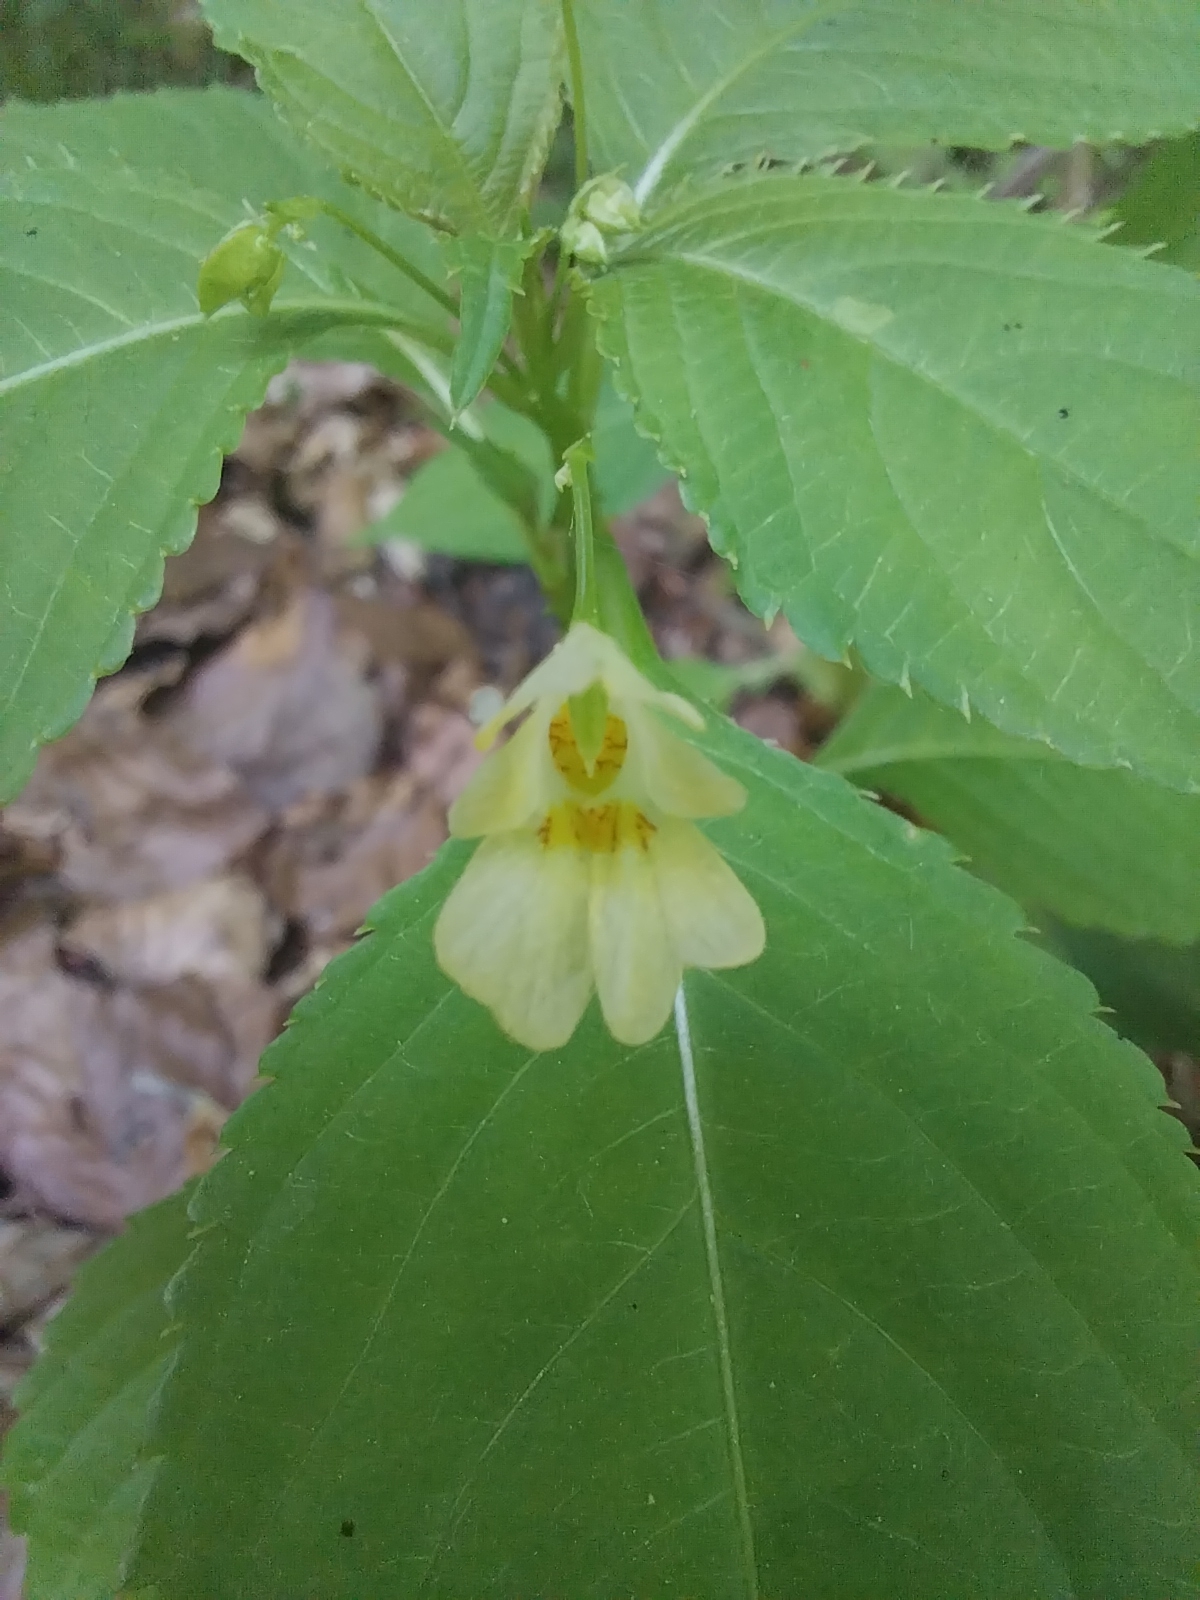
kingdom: Plantae
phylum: Tracheophyta
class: Magnoliopsida
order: Ericales
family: Balsaminaceae
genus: Impatiens
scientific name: Impatiens parviflora
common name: Small balsam
